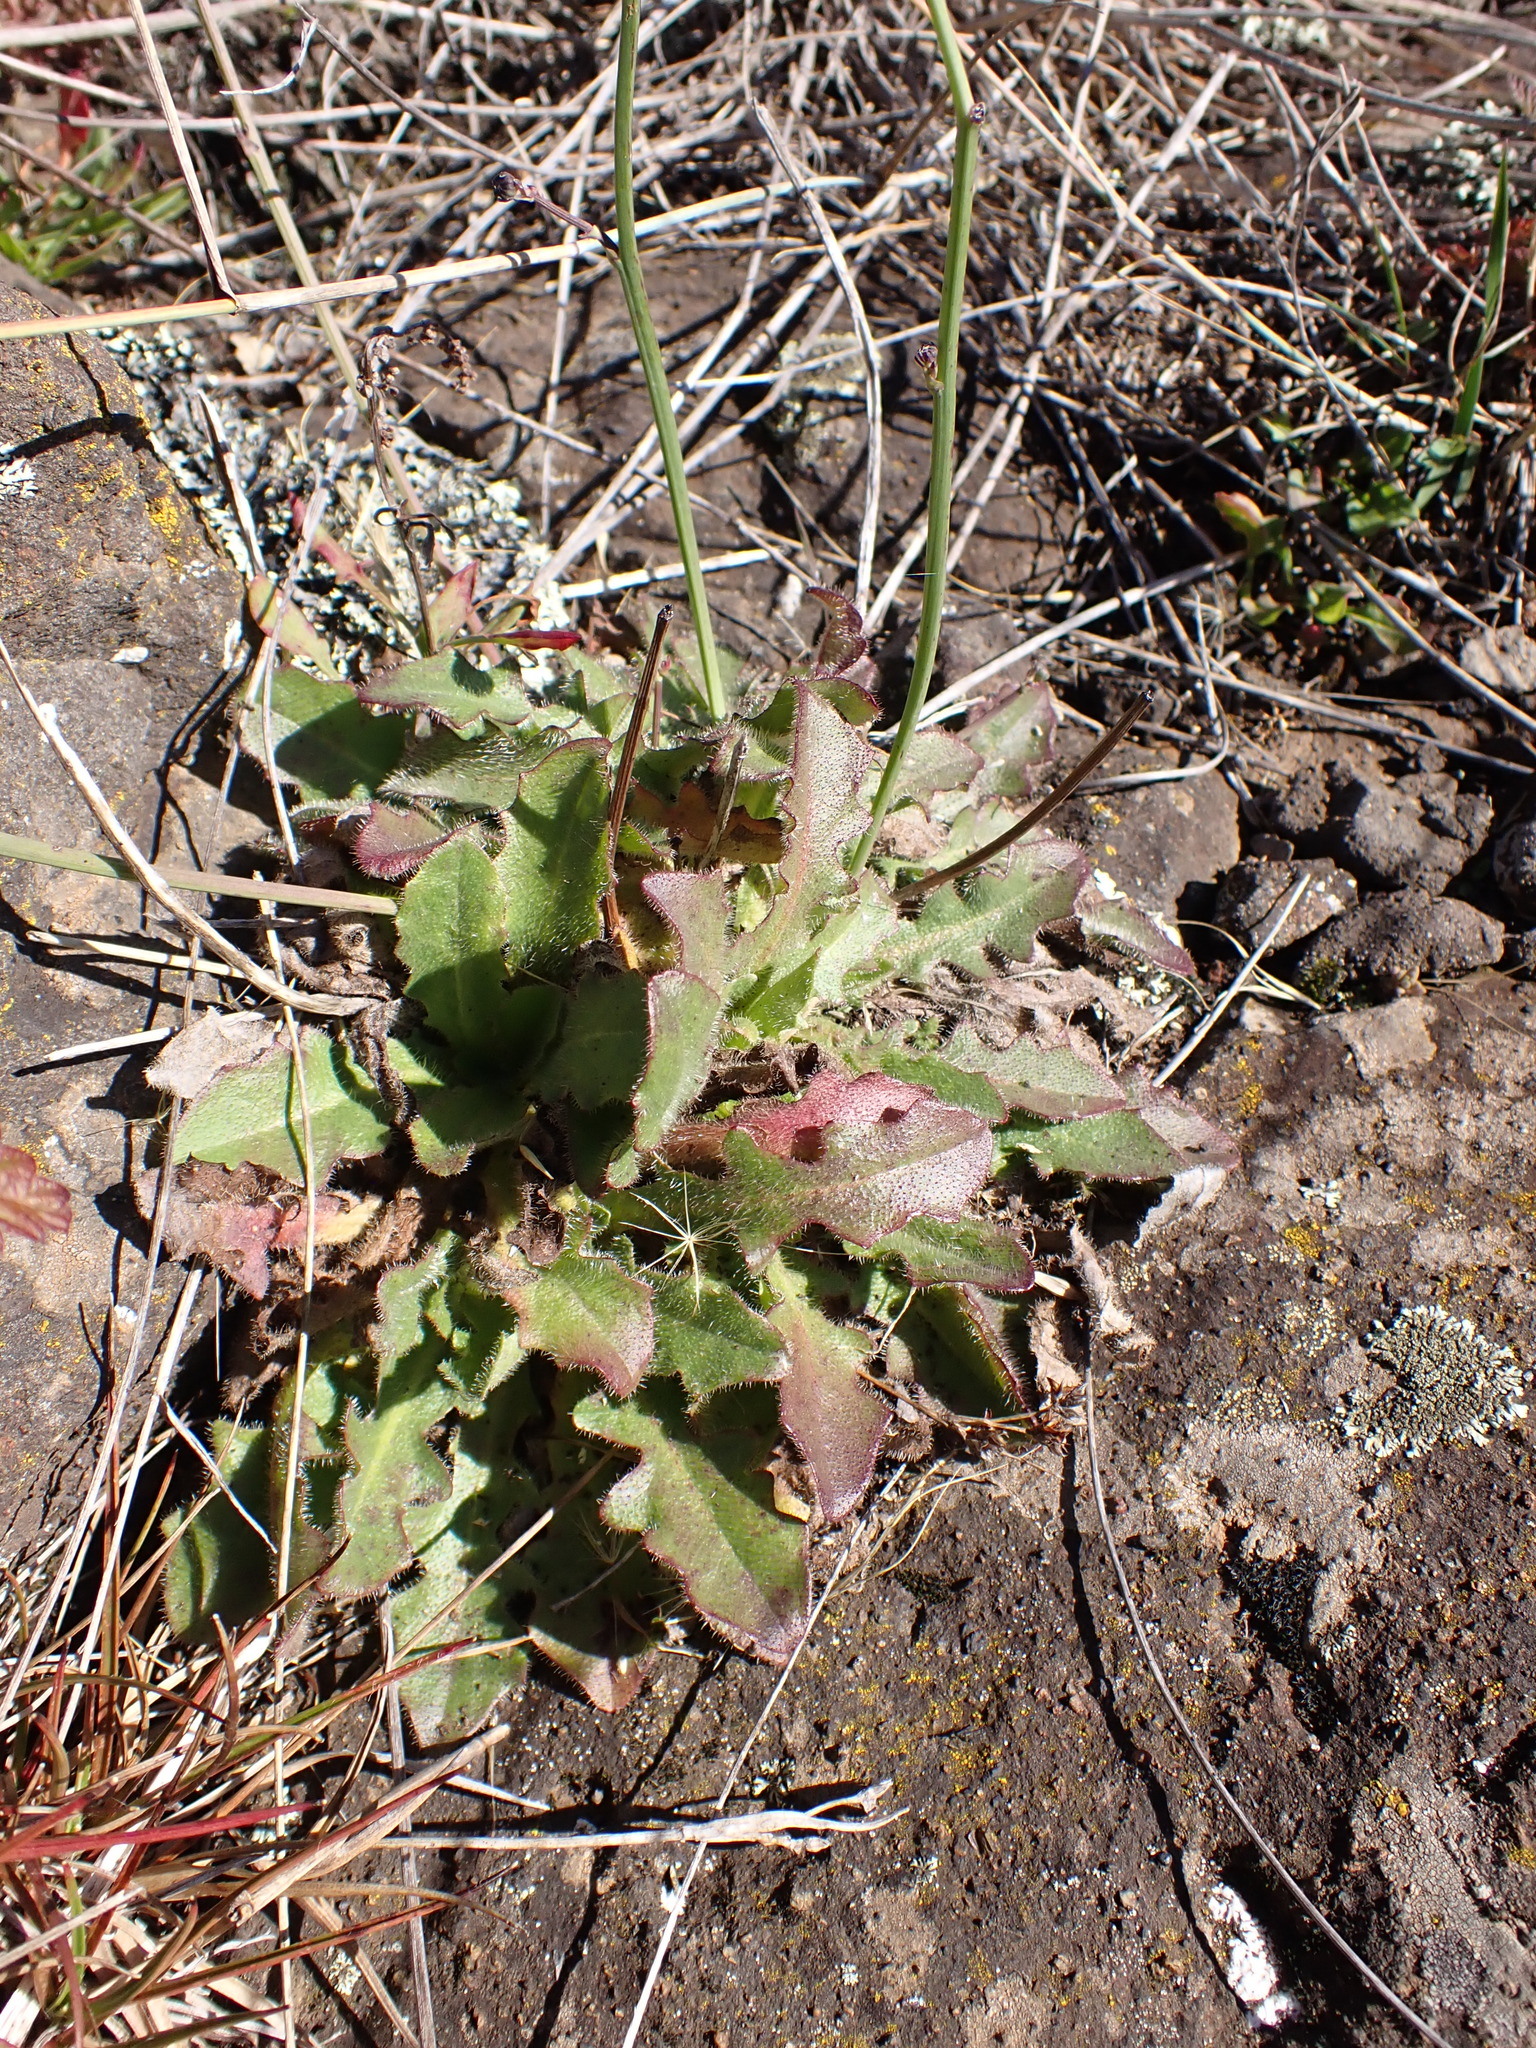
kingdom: Plantae
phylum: Tracheophyta
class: Magnoliopsida
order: Asterales
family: Asteraceae
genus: Hypochaeris
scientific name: Hypochaeris radicata
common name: Flatweed
